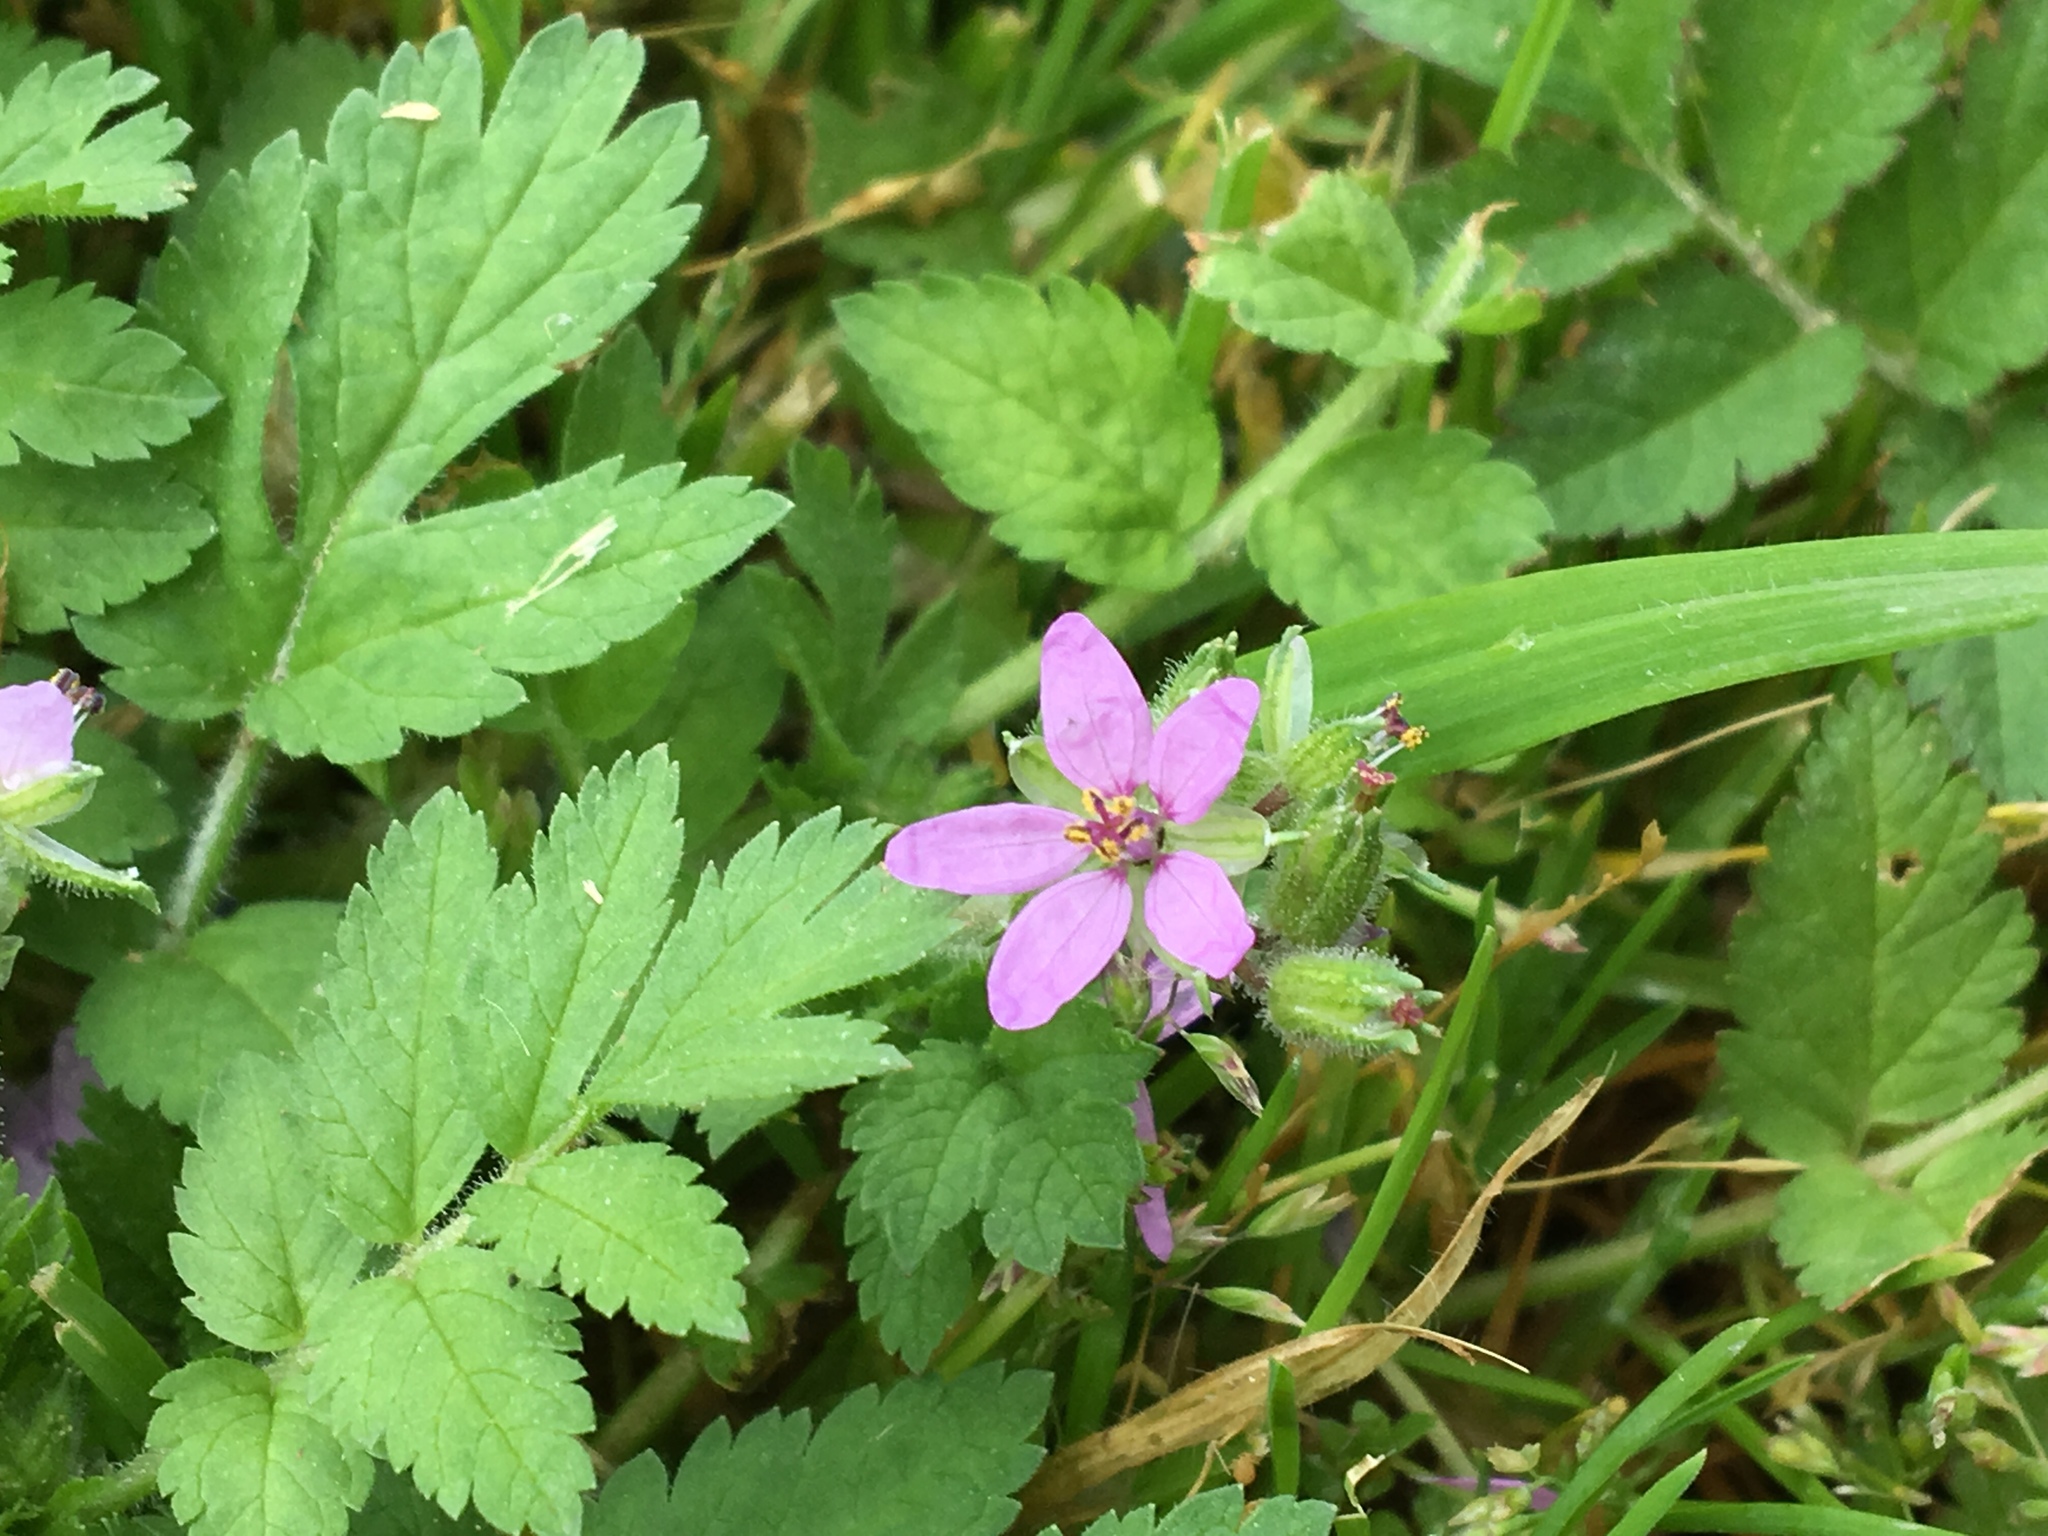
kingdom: Plantae
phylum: Tracheophyta
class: Magnoliopsida
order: Geraniales
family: Geraniaceae
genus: Erodium
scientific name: Erodium moschatum
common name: Musk stork's-bill
